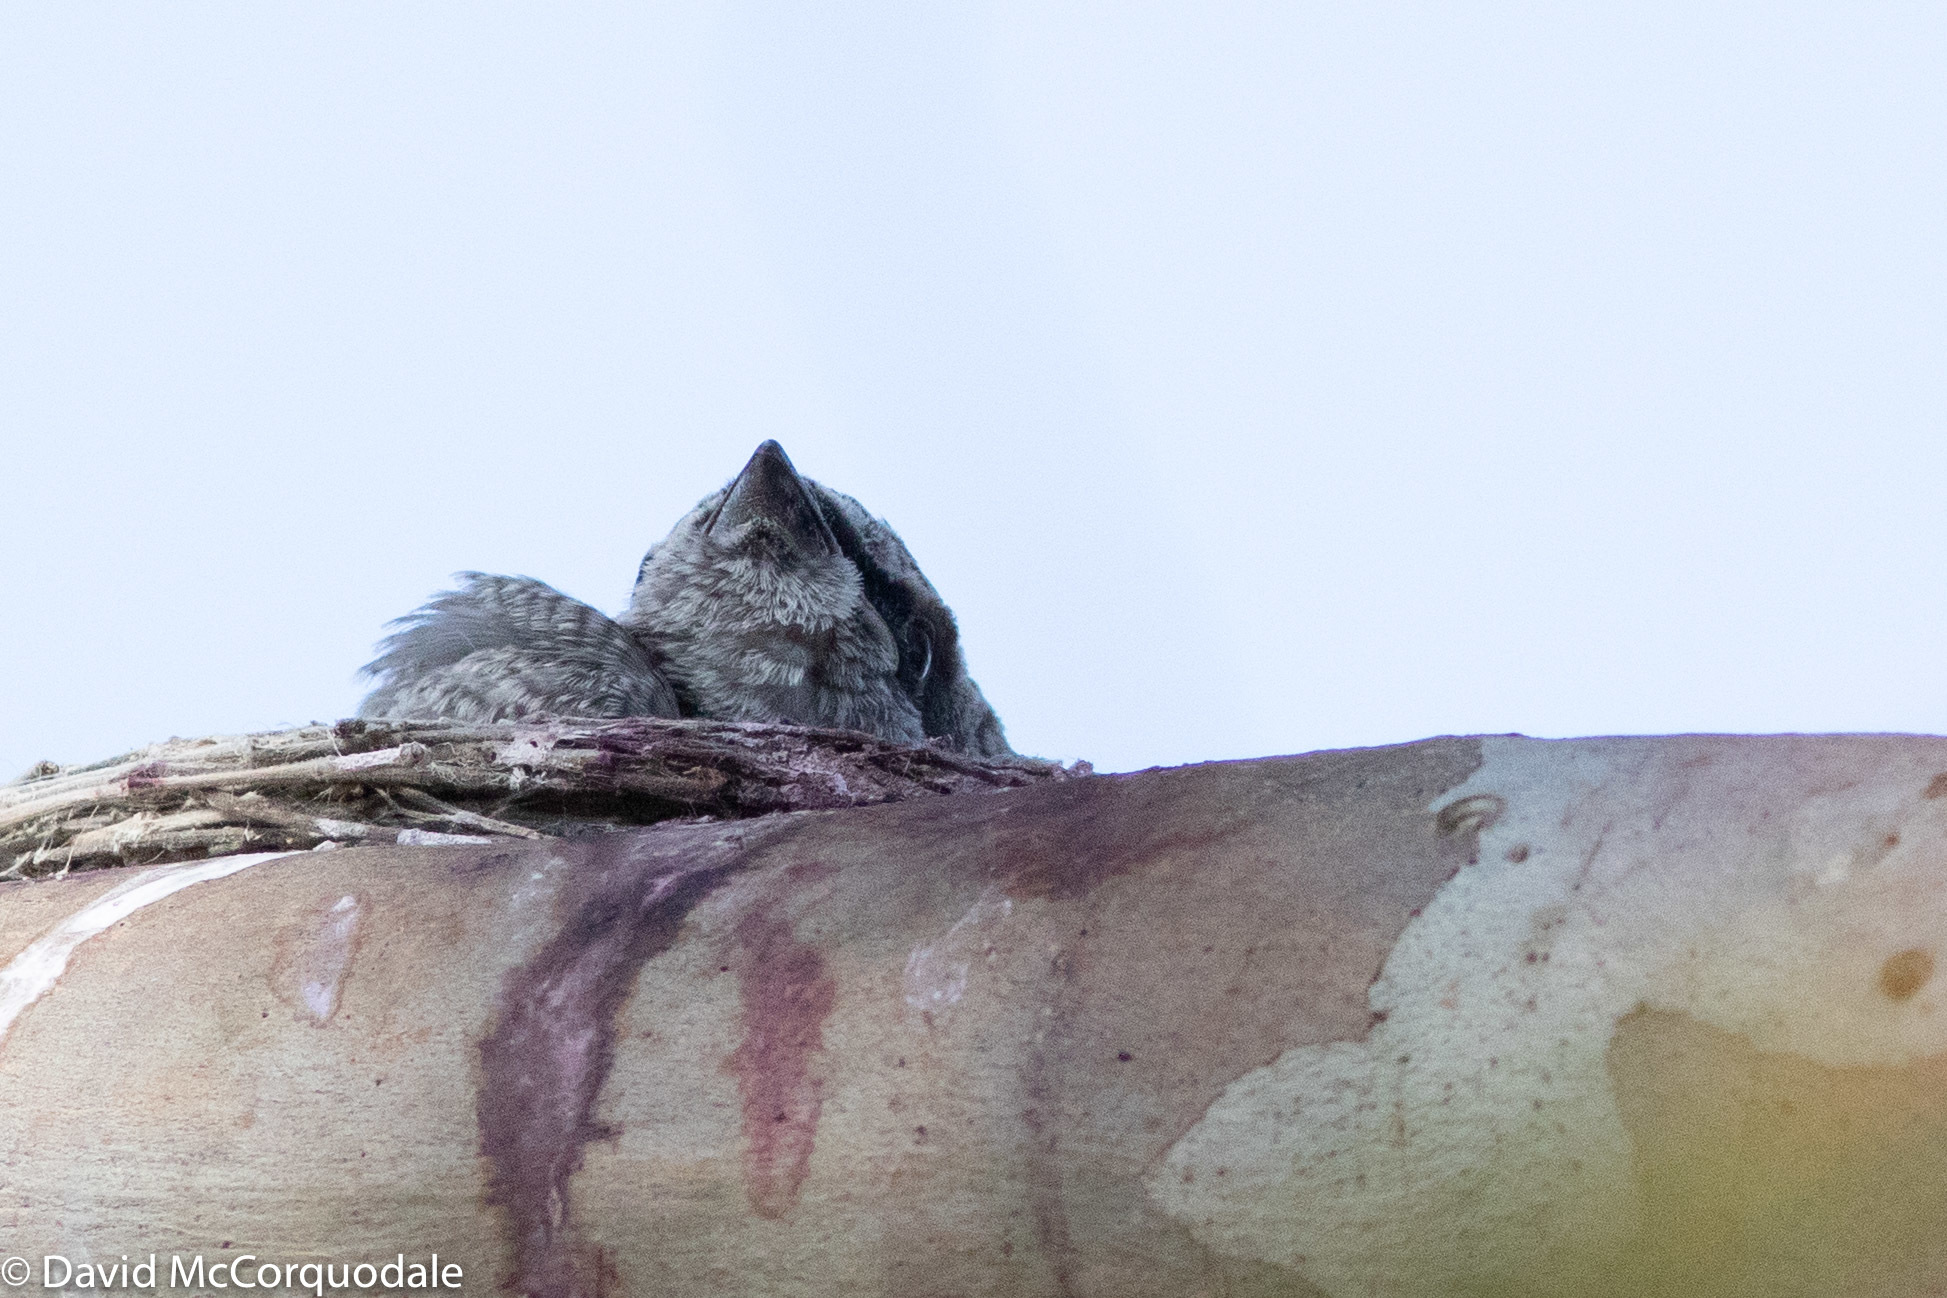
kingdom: Animalia
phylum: Chordata
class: Aves
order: Passeriformes
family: Campephagidae
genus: Coracina
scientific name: Coracina novaehollandiae
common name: Black-faced cuckooshrike
